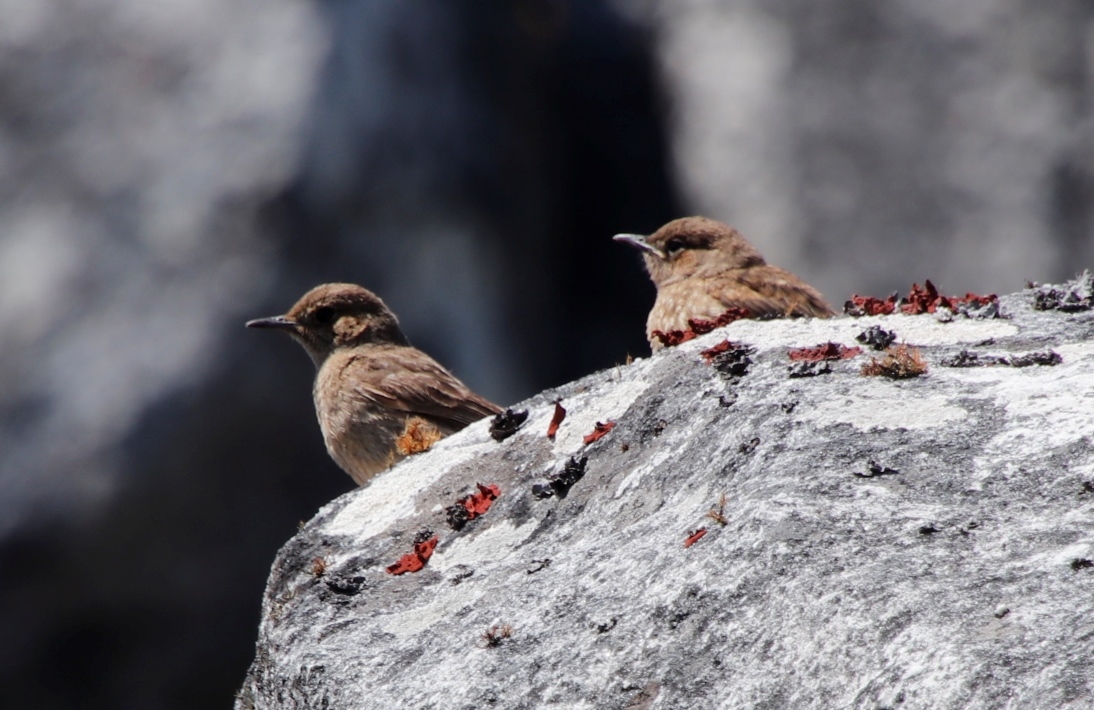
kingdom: Animalia
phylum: Chordata
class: Aves
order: Passeriformes
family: Muscicapidae
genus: Oenanthe
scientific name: Oenanthe familiaris
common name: Familiar chat
